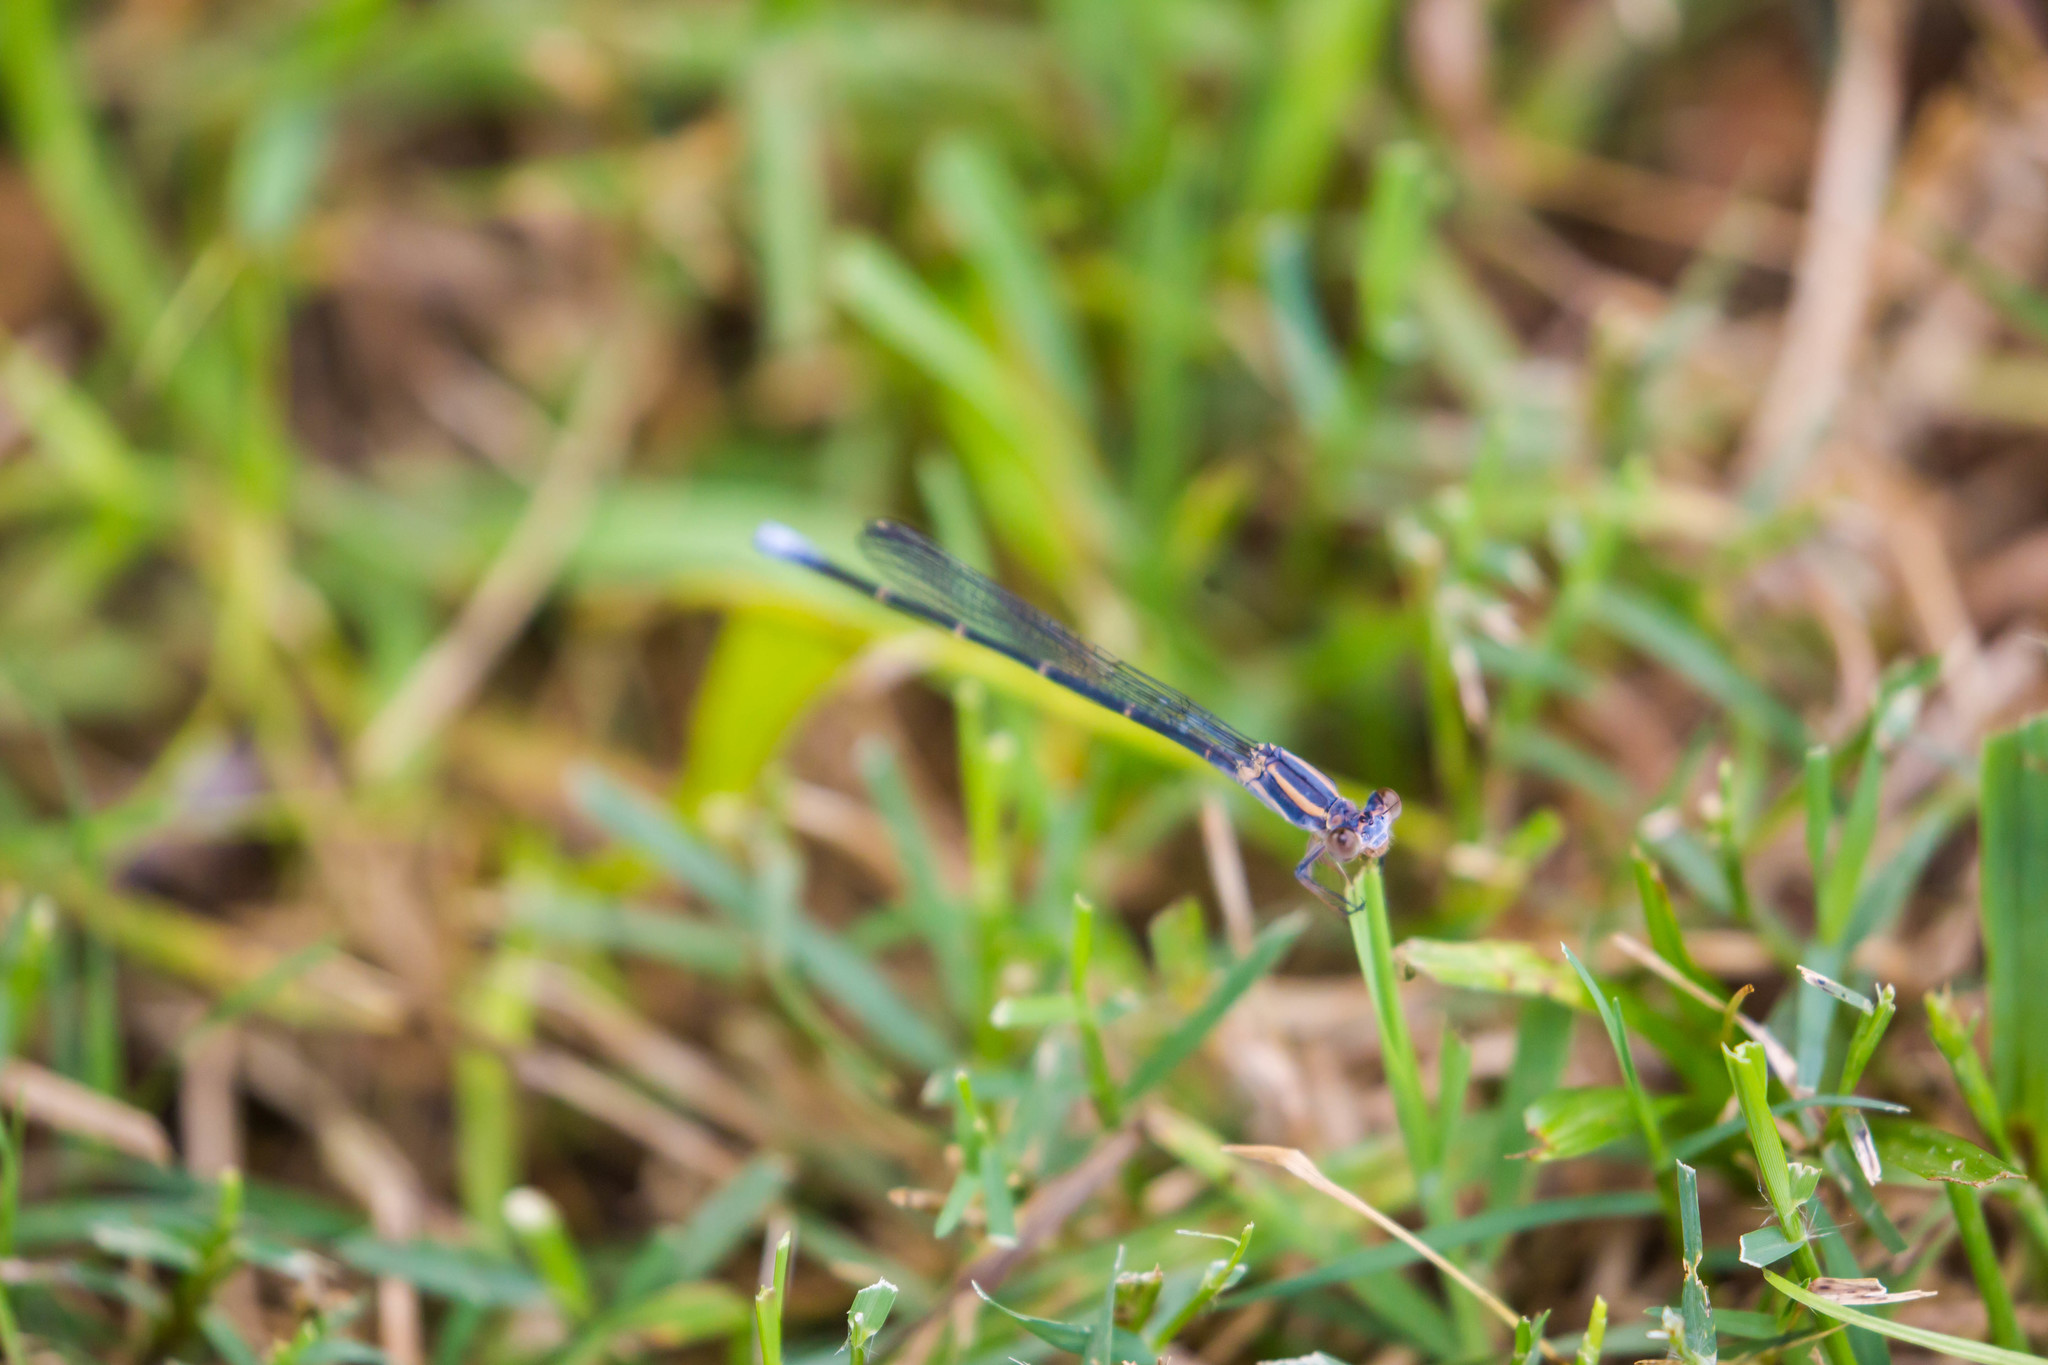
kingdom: Animalia
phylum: Arthropoda
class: Insecta
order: Odonata
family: Coenagrionidae
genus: Argia
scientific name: Argia moesta
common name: Powdered dancer
